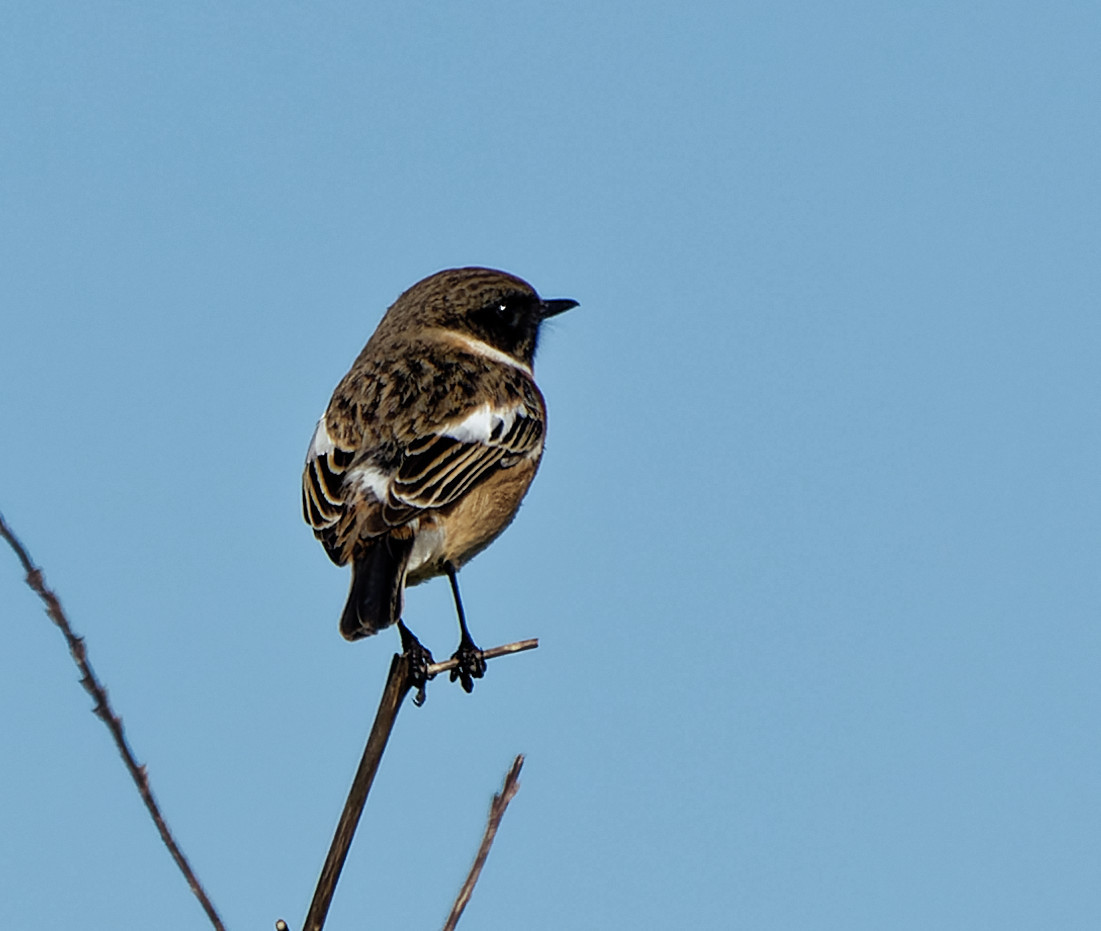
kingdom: Animalia
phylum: Chordata
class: Aves
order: Passeriformes
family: Muscicapidae
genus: Saxicola
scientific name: Saxicola rubicola
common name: European stonechat
